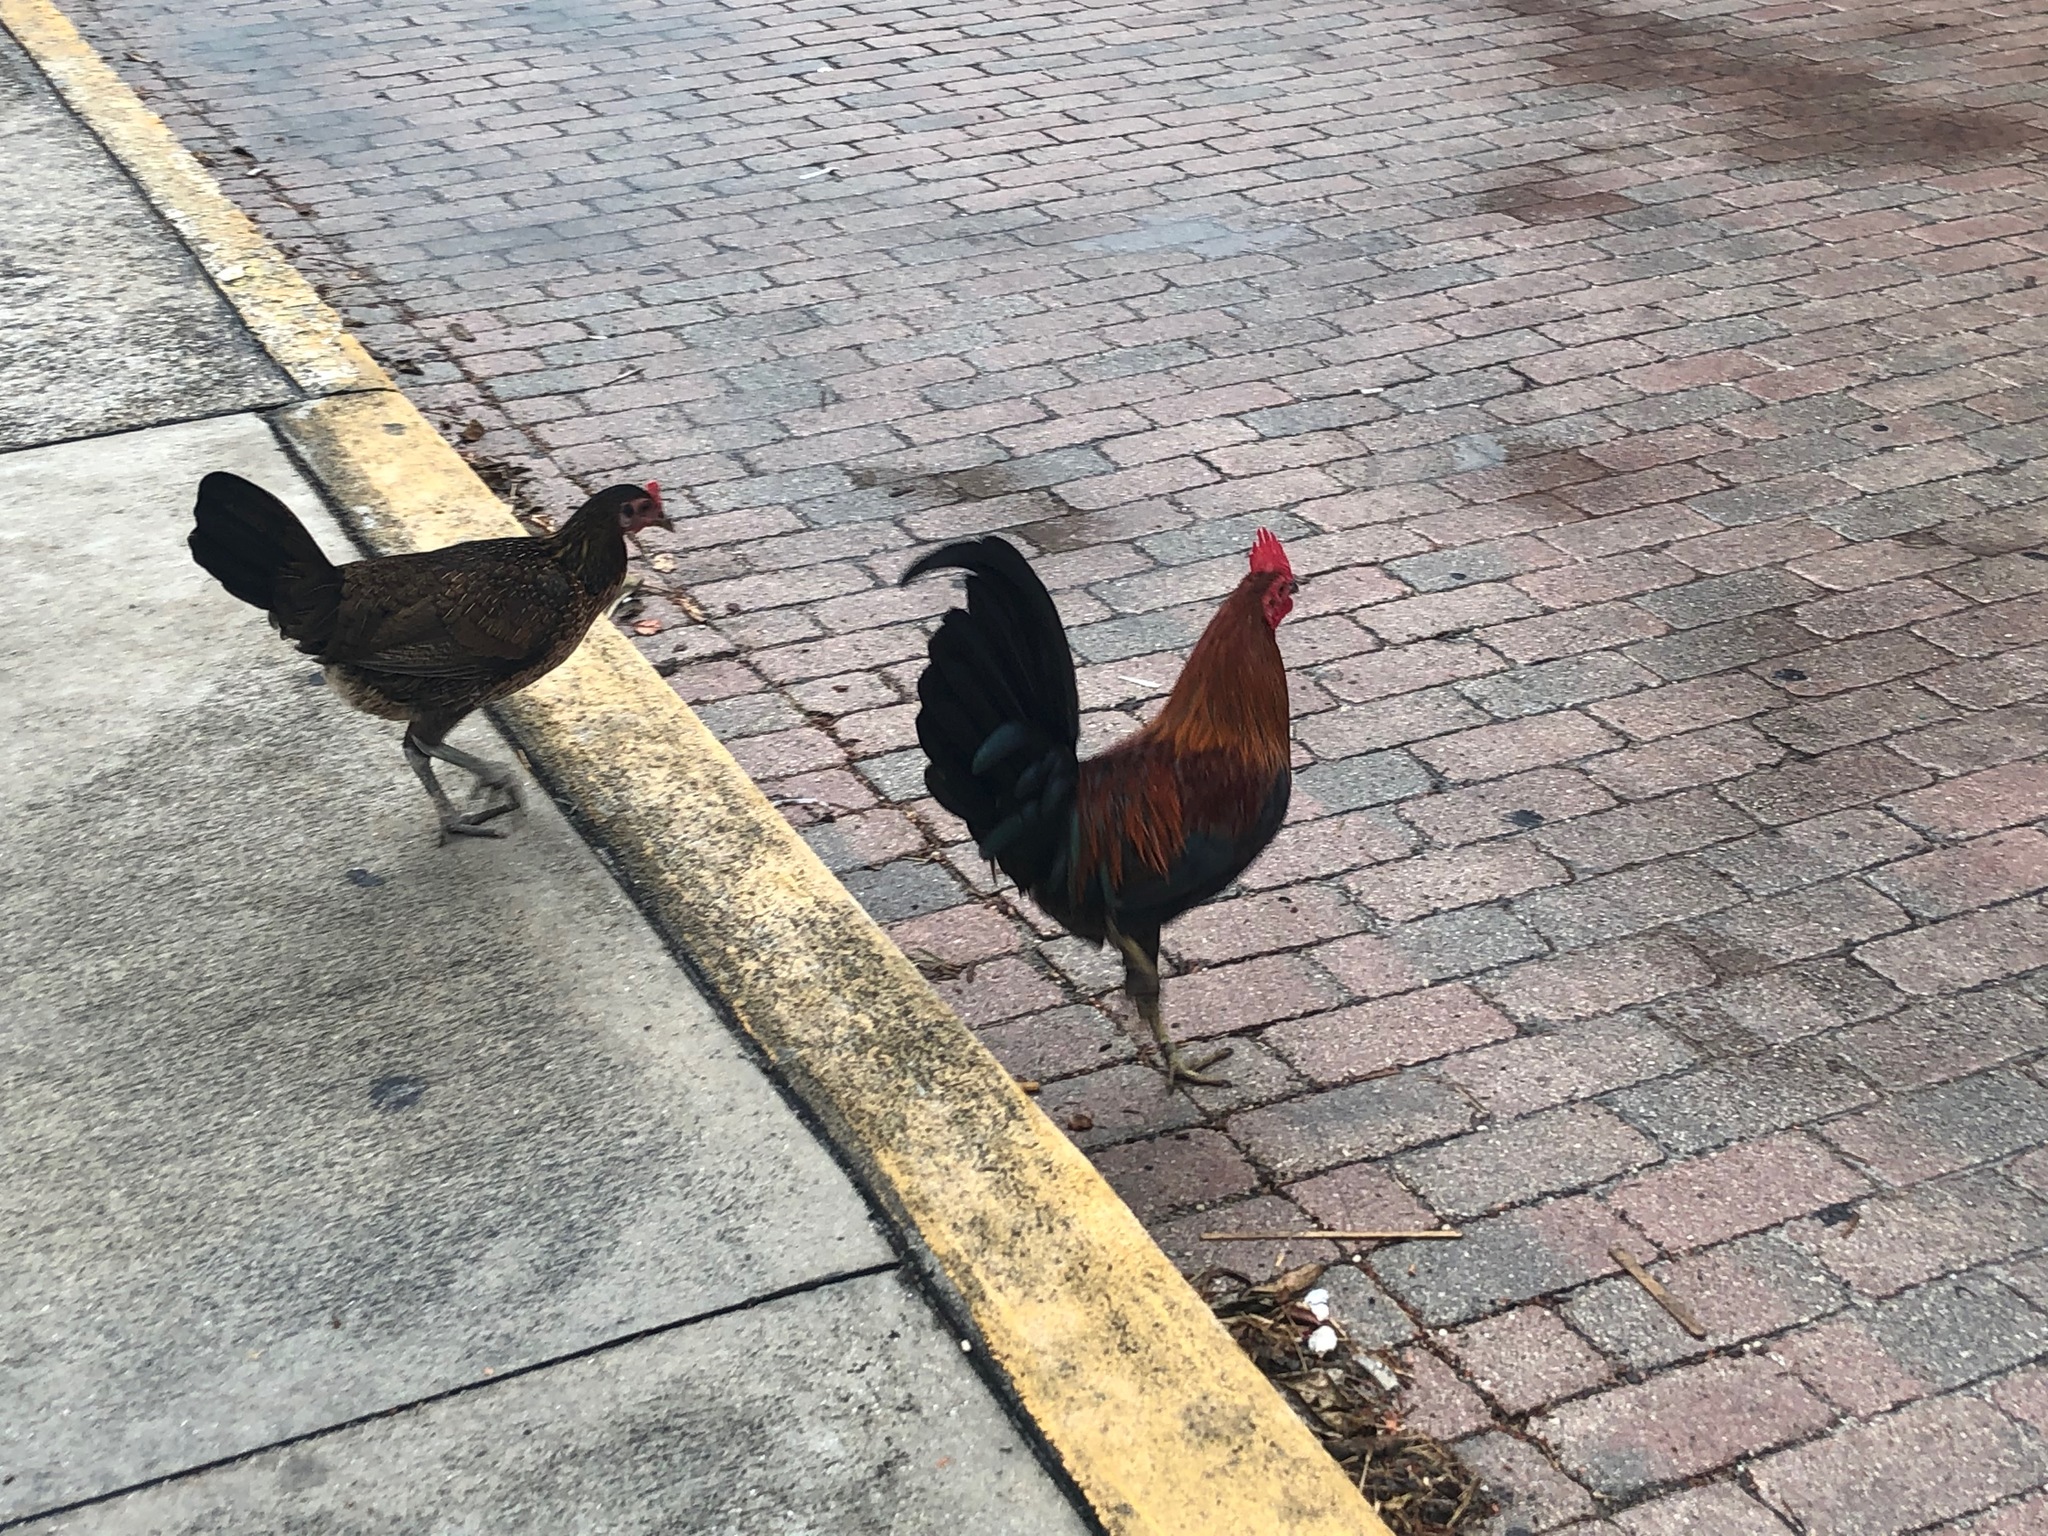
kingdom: Animalia
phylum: Chordata
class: Aves
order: Galliformes
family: Phasianidae
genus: Gallus
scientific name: Gallus gallus
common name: Red junglefowl
